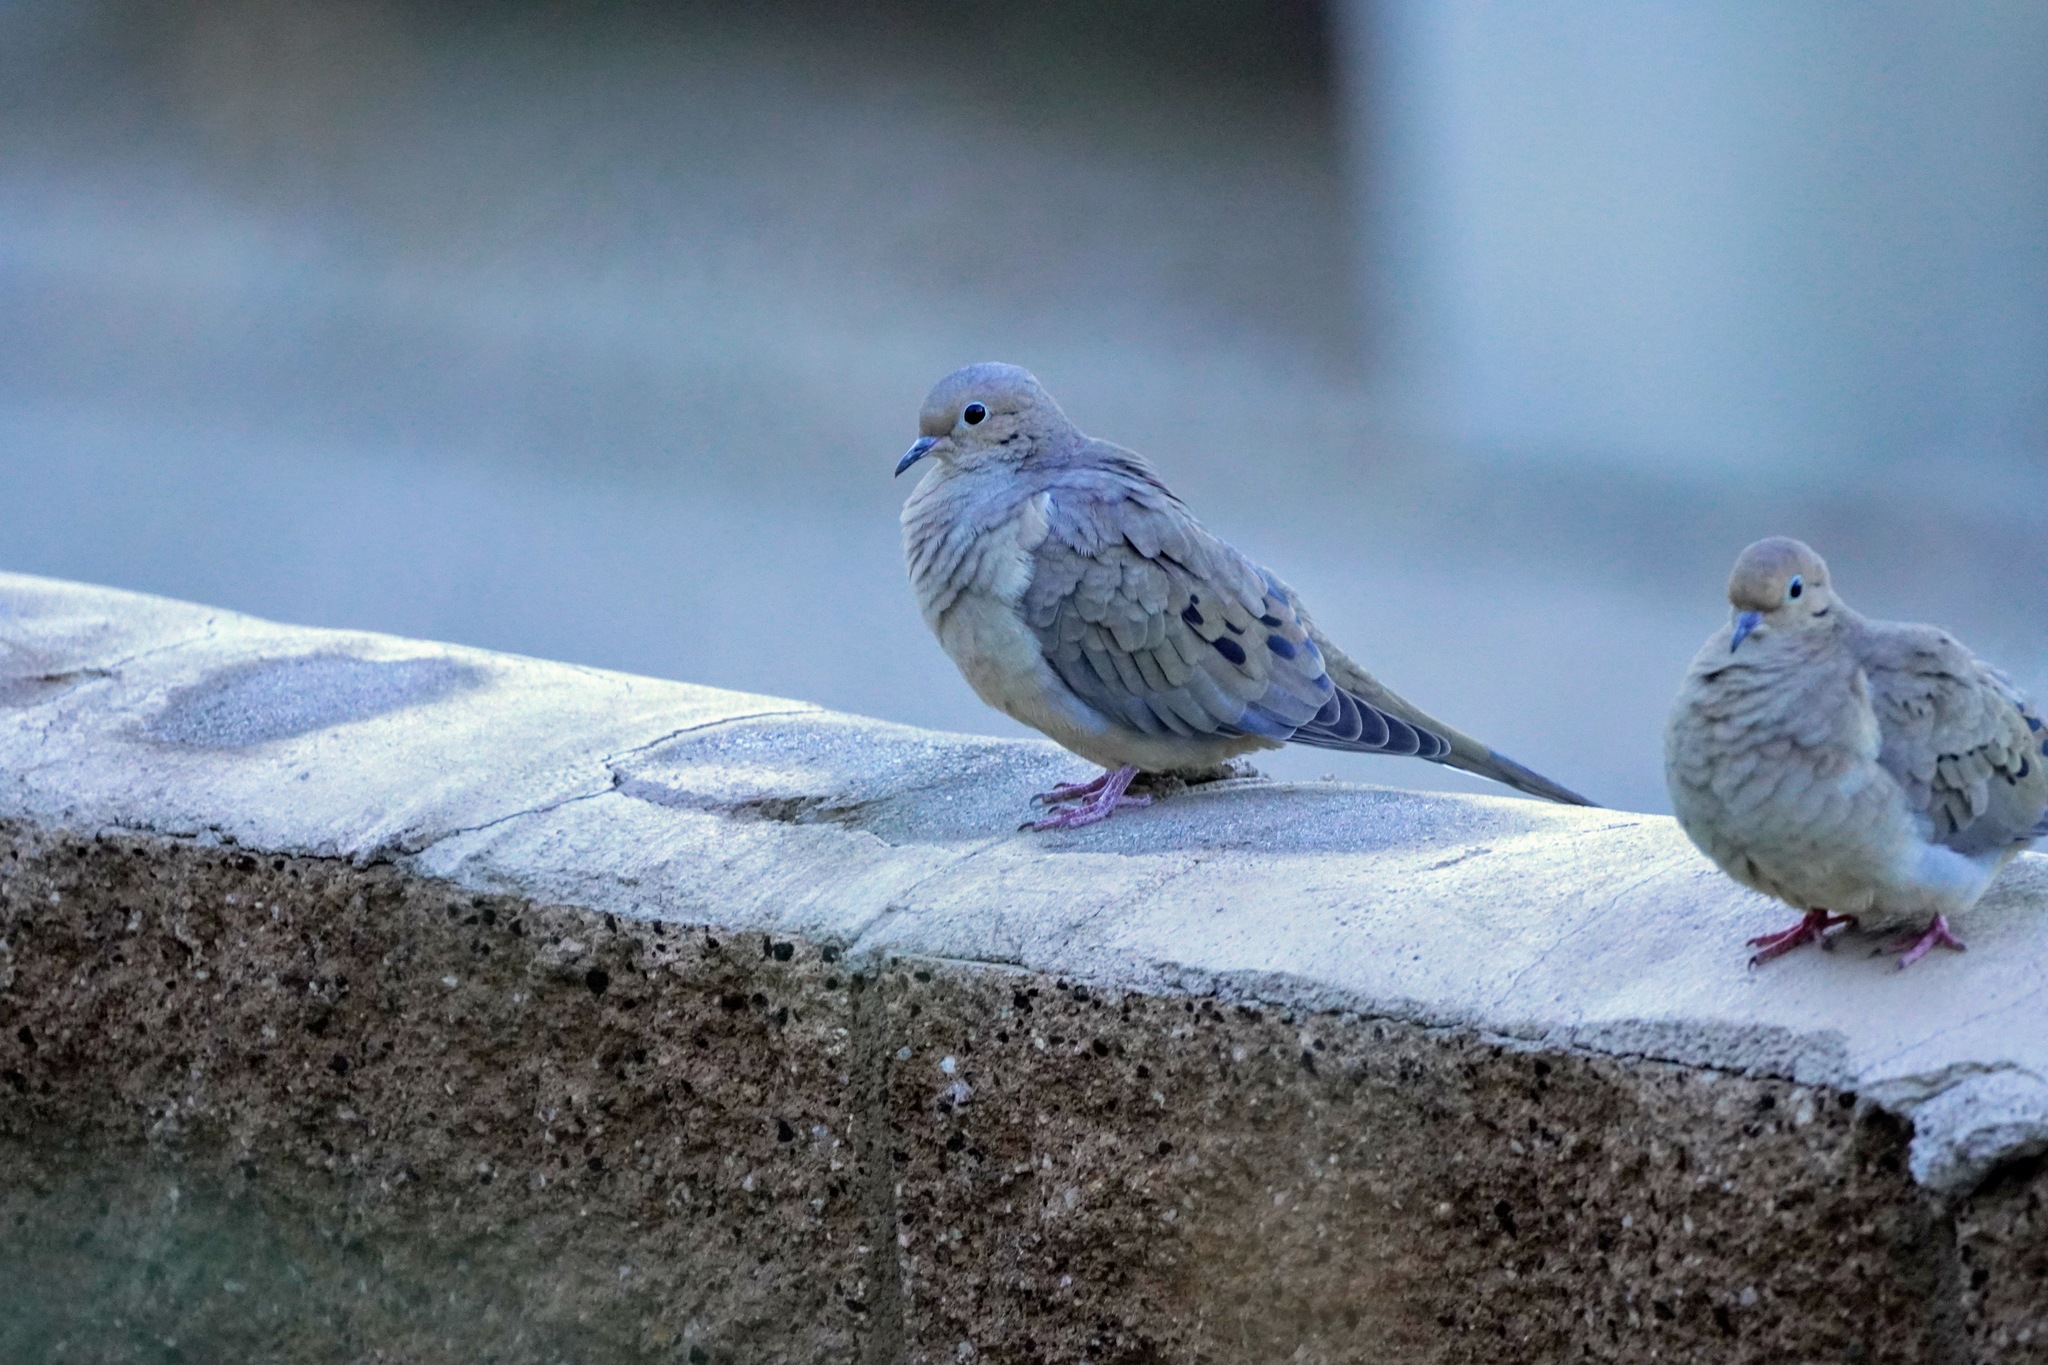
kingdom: Animalia
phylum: Chordata
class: Aves
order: Columbiformes
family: Columbidae
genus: Zenaida
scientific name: Zenaida macroura
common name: Mourning dove
